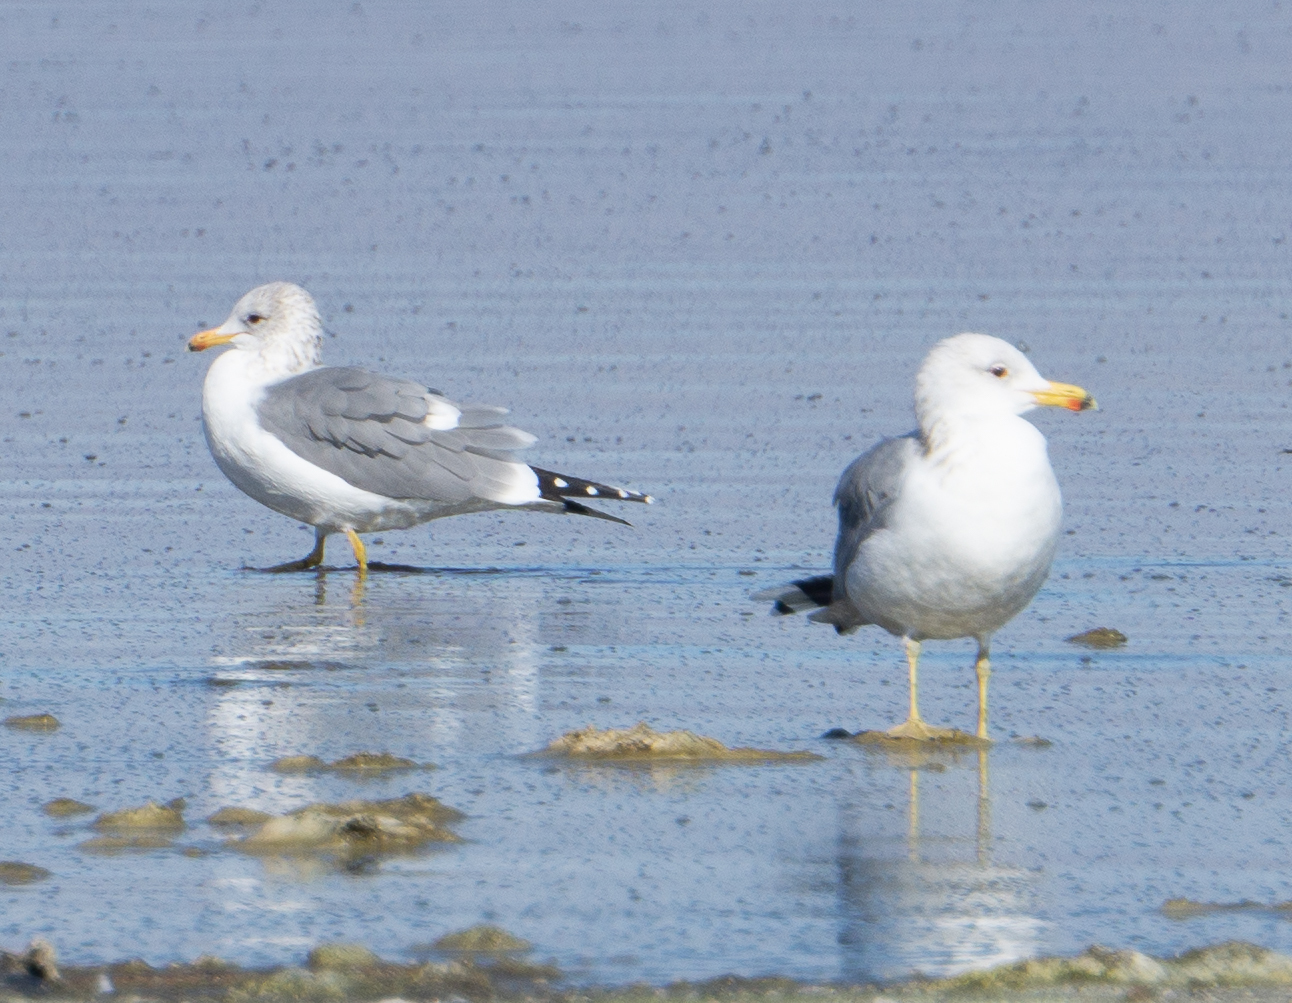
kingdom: Animalia
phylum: Chordata
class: Aves
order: Charadriiformes
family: Laridae
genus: Larus
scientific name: Larus californicus
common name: California gull
